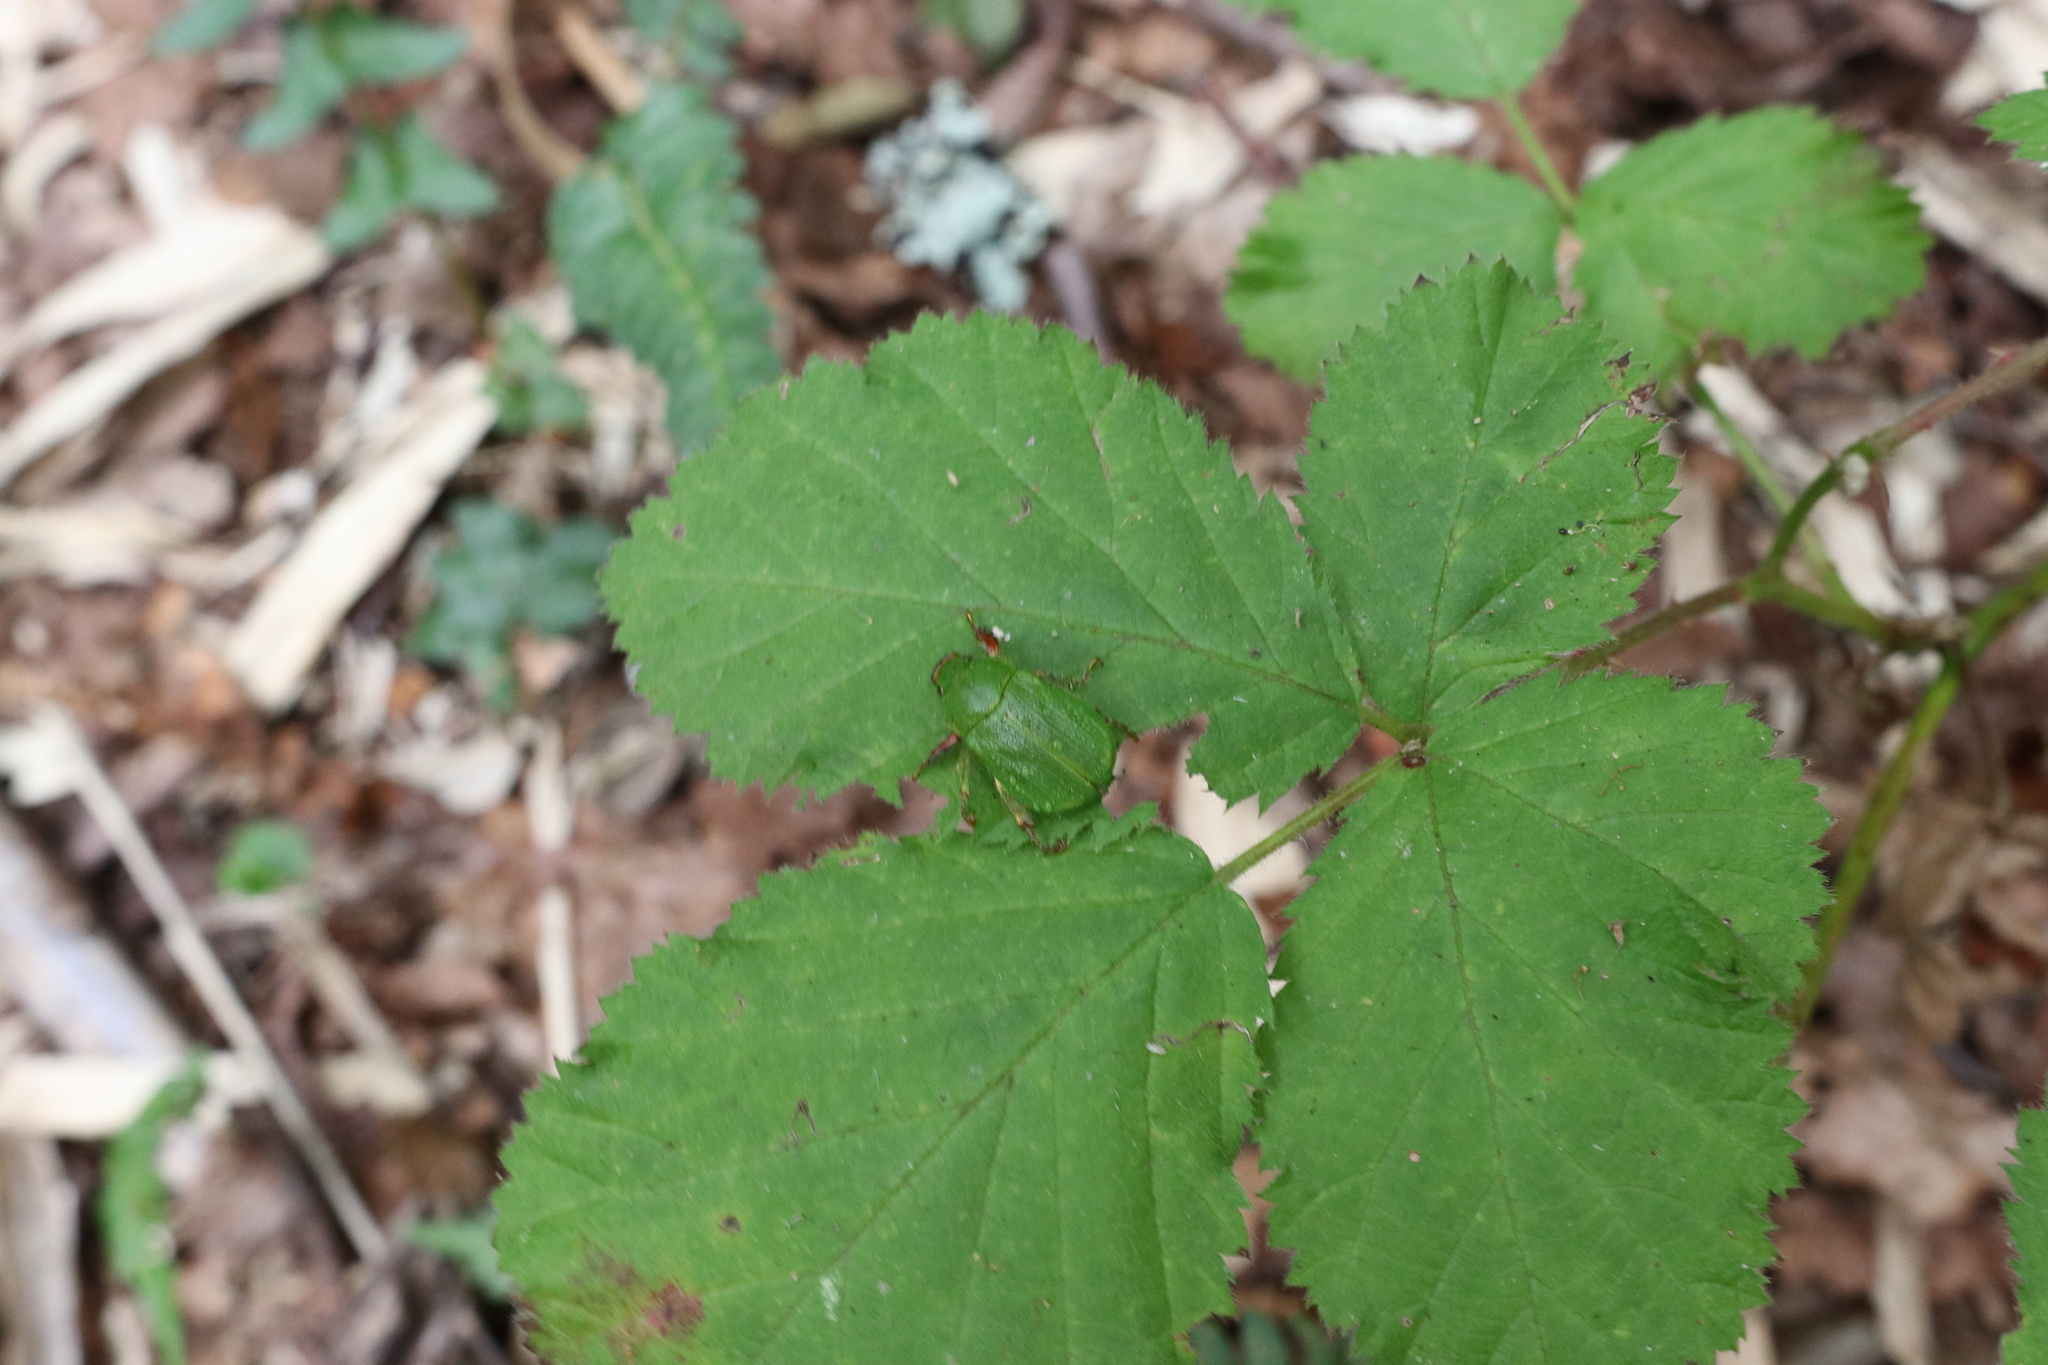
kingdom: Animalia
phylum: Arthropoda
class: Insecta
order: Coleoptera
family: Scarabaeidae
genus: Hylamorpha
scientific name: Hylamorpha elegans
